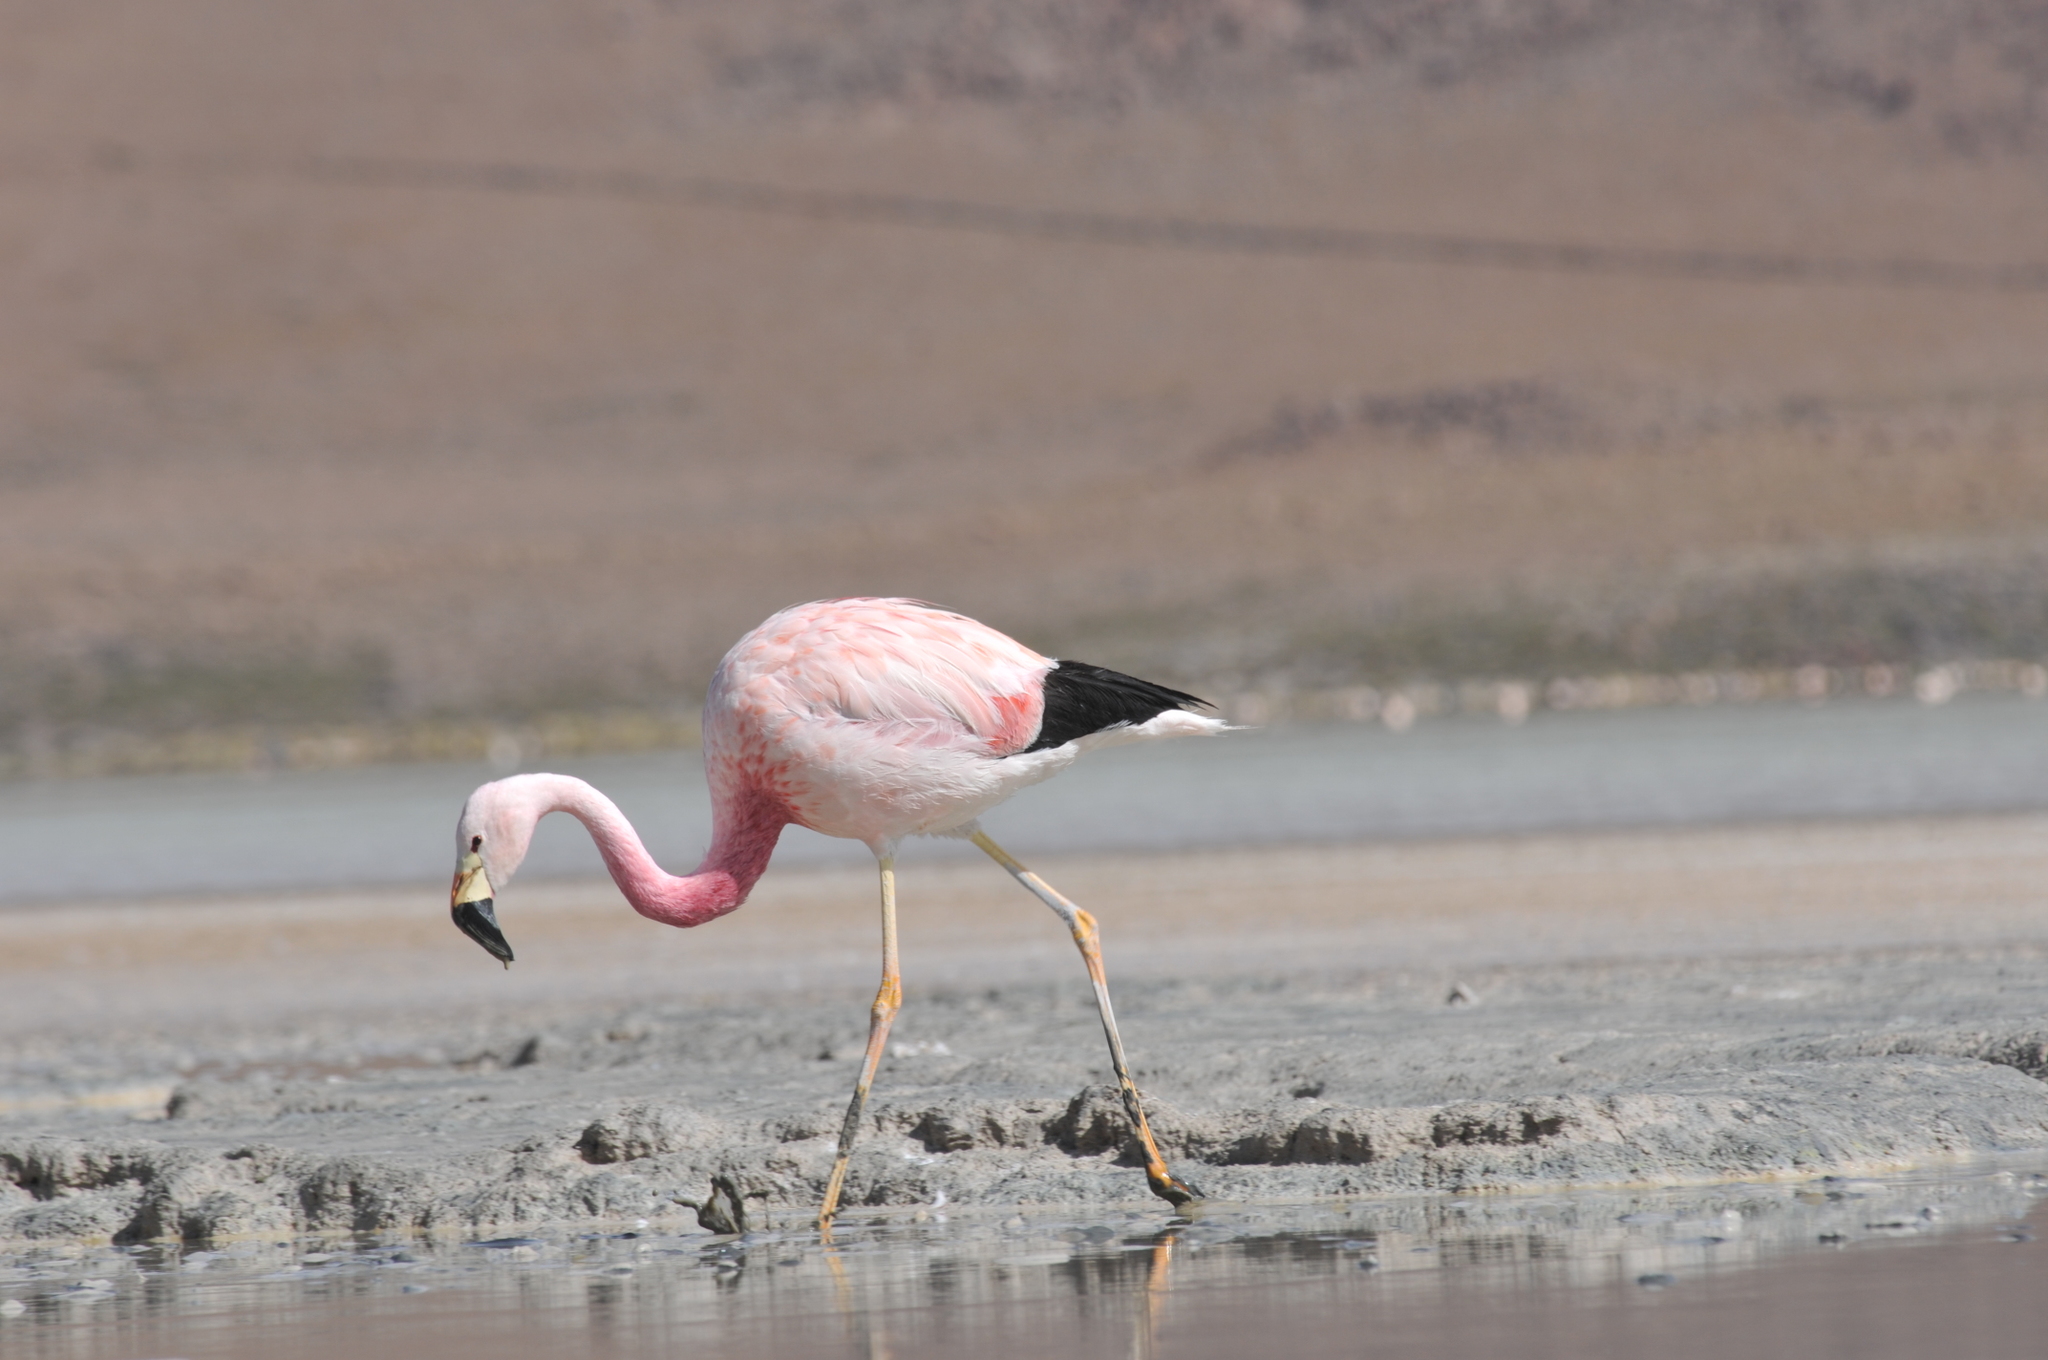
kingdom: Animalia
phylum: Chordata
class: Aves
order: Phoenicopteriformes
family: Phoenicopteridae
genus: Phoenicoparrus
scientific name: Phoenicoparrus andinus
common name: Andean flamingo
